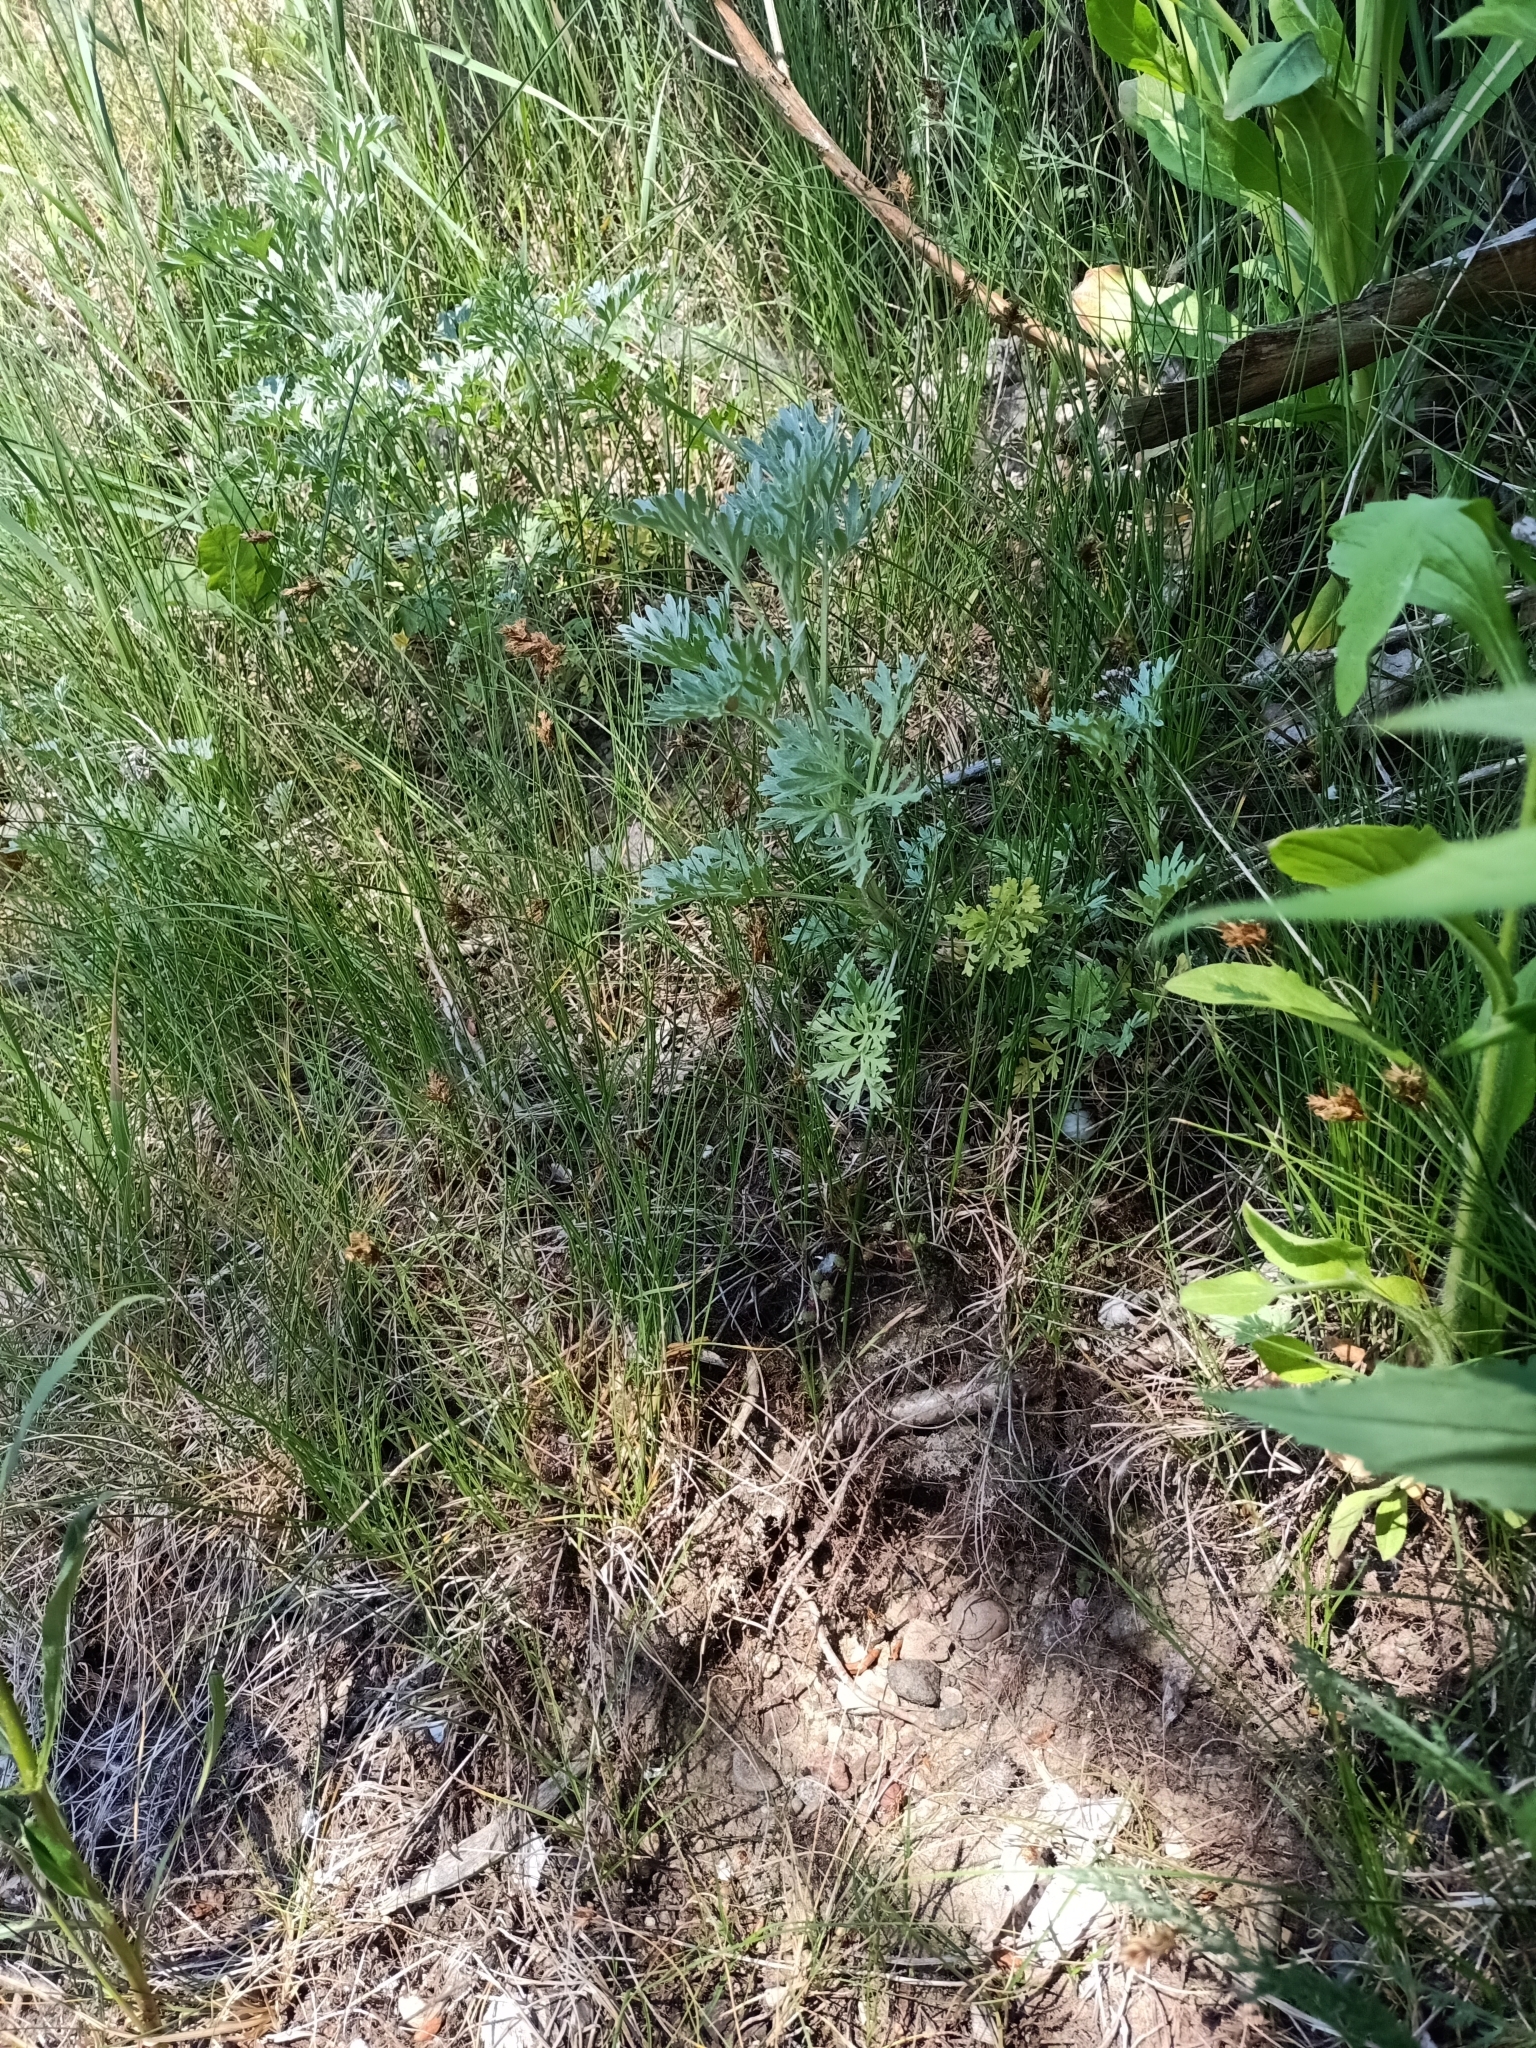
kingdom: Plantae
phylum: Tracheophyta
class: Magnoliopsida
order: Asterales
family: Asteraceae
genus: Artemisia
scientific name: Artemisia absinthium
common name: Wormwood
